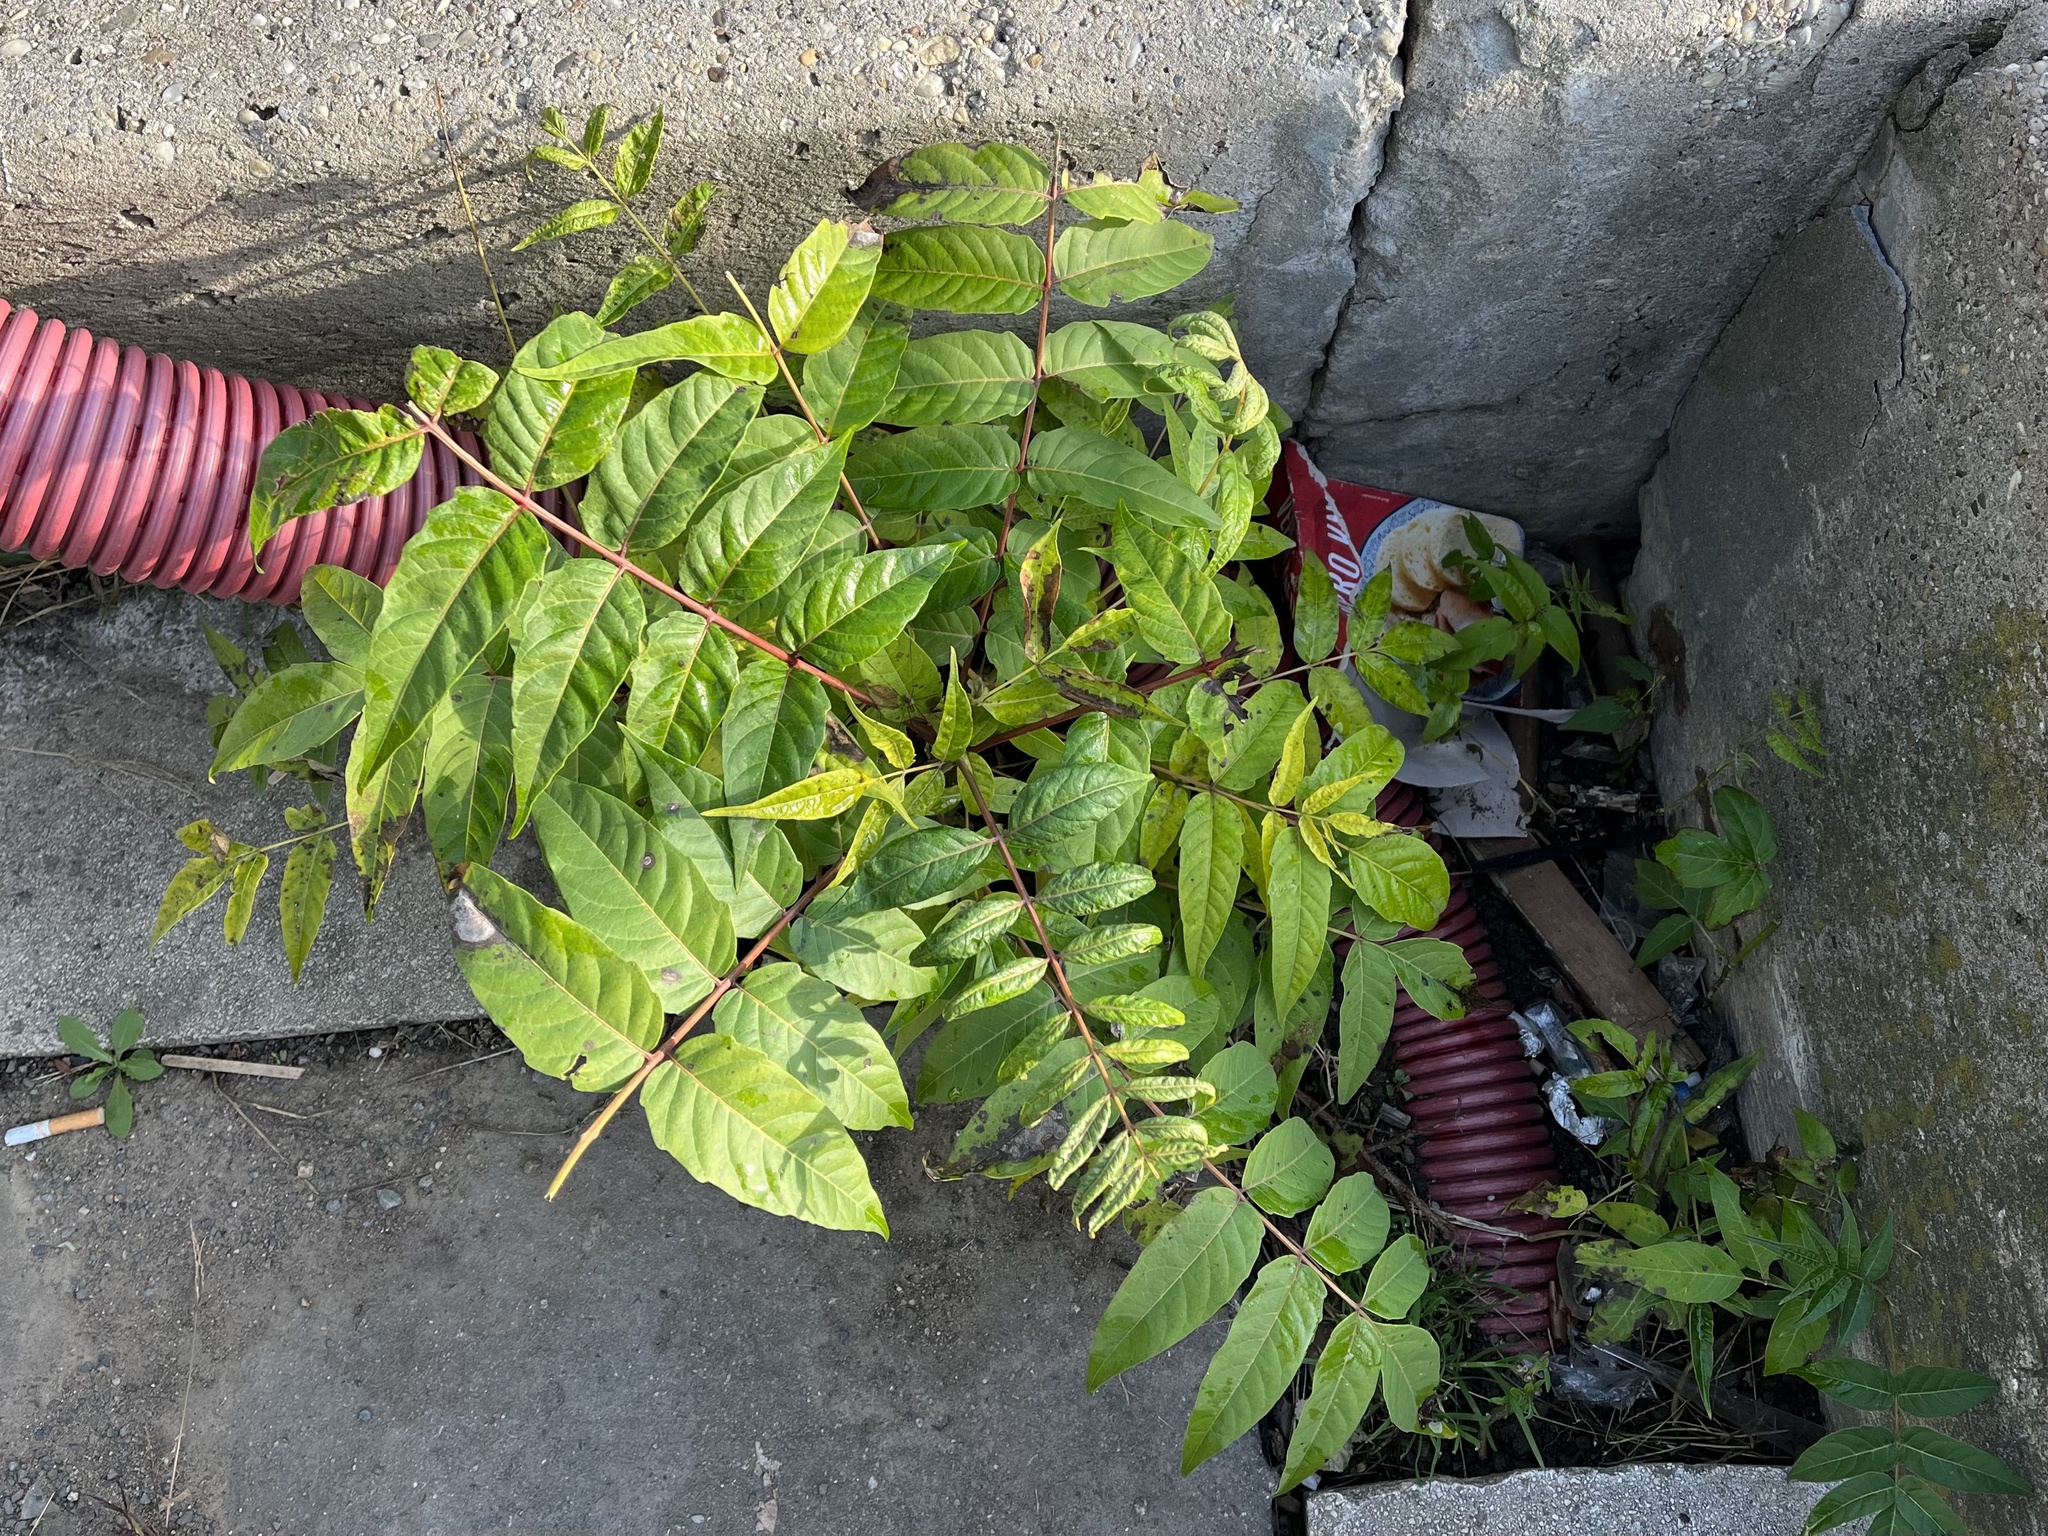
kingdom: Plantae
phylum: Tracheophyta
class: Magnoliopsida
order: Sapindales
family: Simaroubaceae
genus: Ailanthus
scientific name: Ailanthus altissima
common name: Tree-of-heaven
